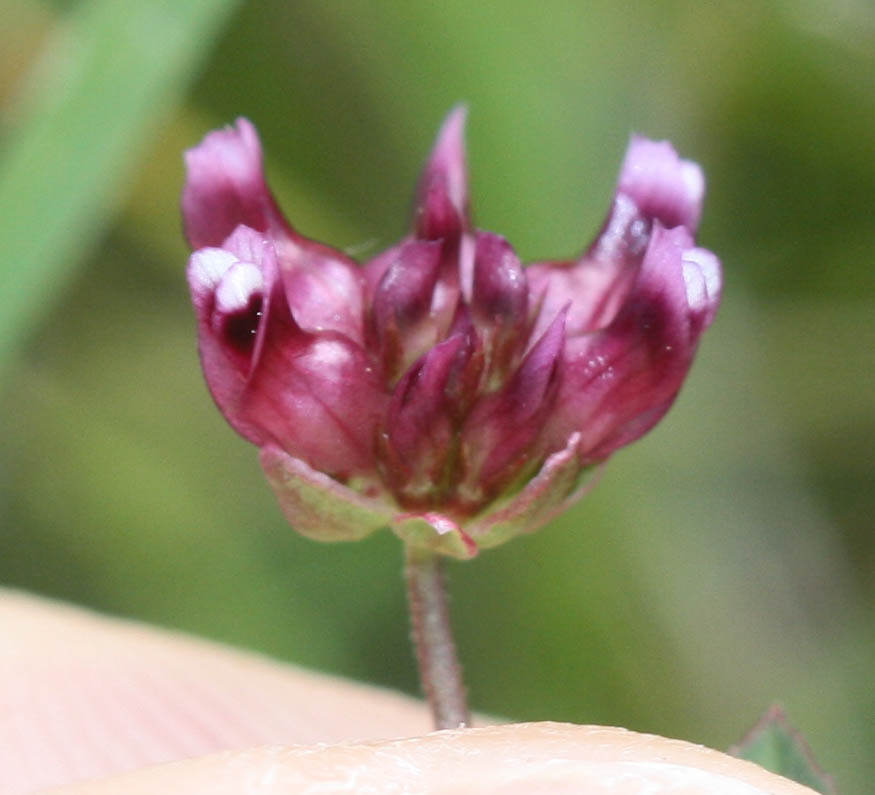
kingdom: Plantae
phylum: Tracheophyta
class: Magnoliopsida
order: Fabales
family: Fabaceae
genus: Trifolium
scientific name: Trifolium depauperatum
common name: Poverty clover
